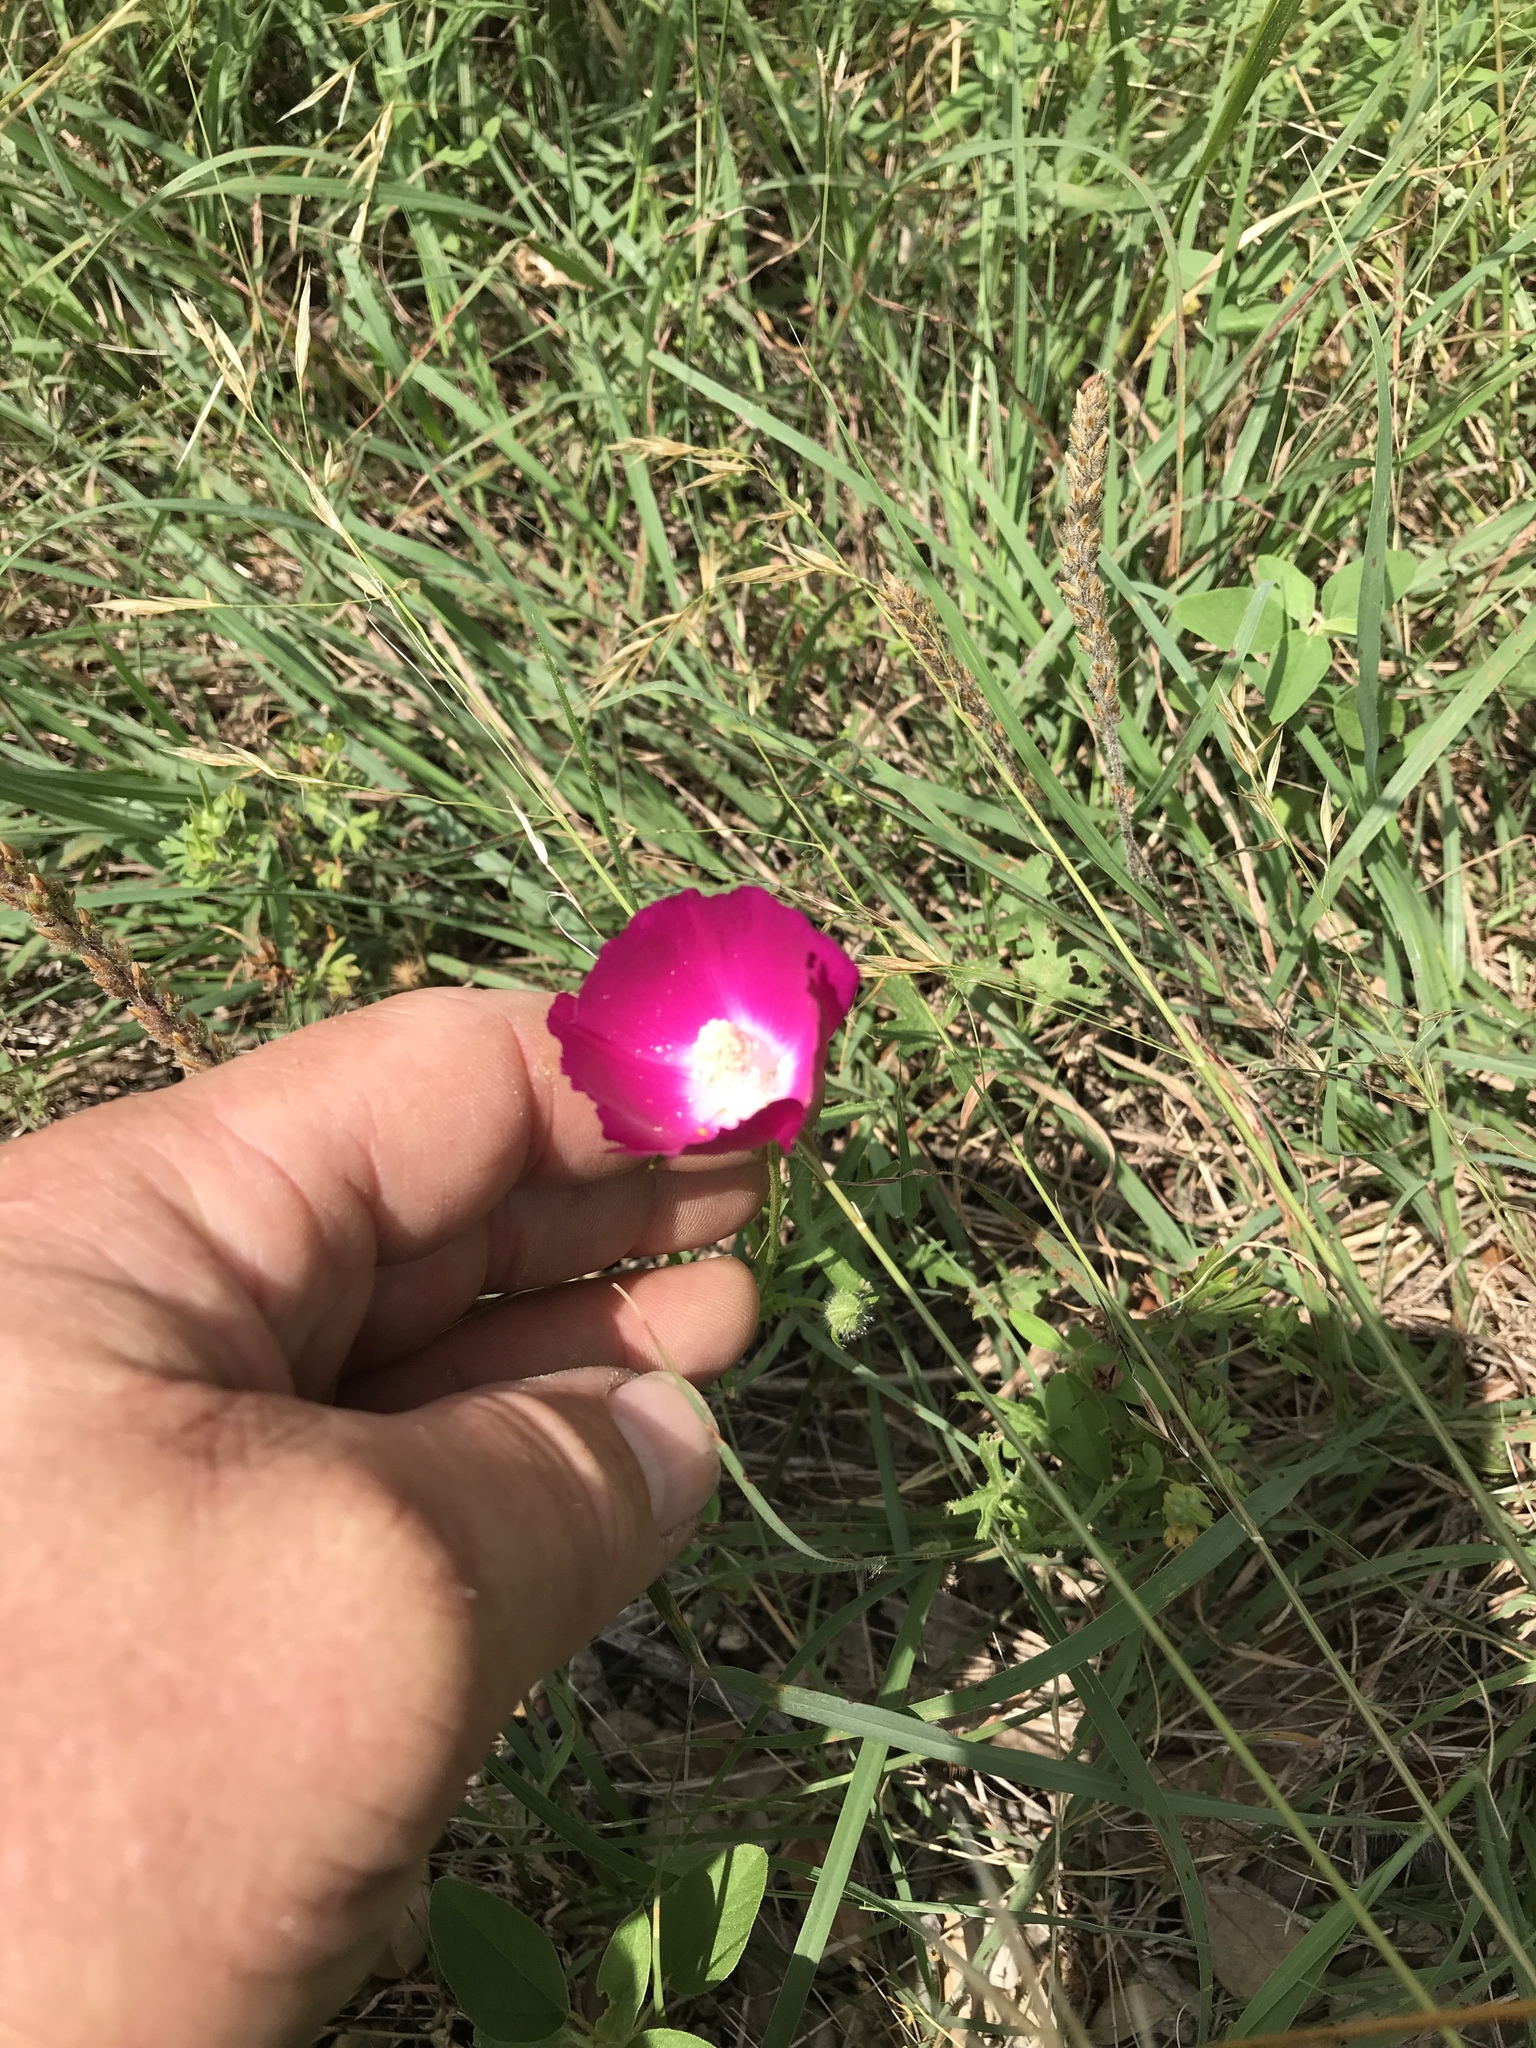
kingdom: Plantae
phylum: Tracheophyta
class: Magnoliopsida
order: Malvales
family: Malvaceae
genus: Callirhoe
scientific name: Callirhoe involucrata
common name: Purple poppy-mallow
